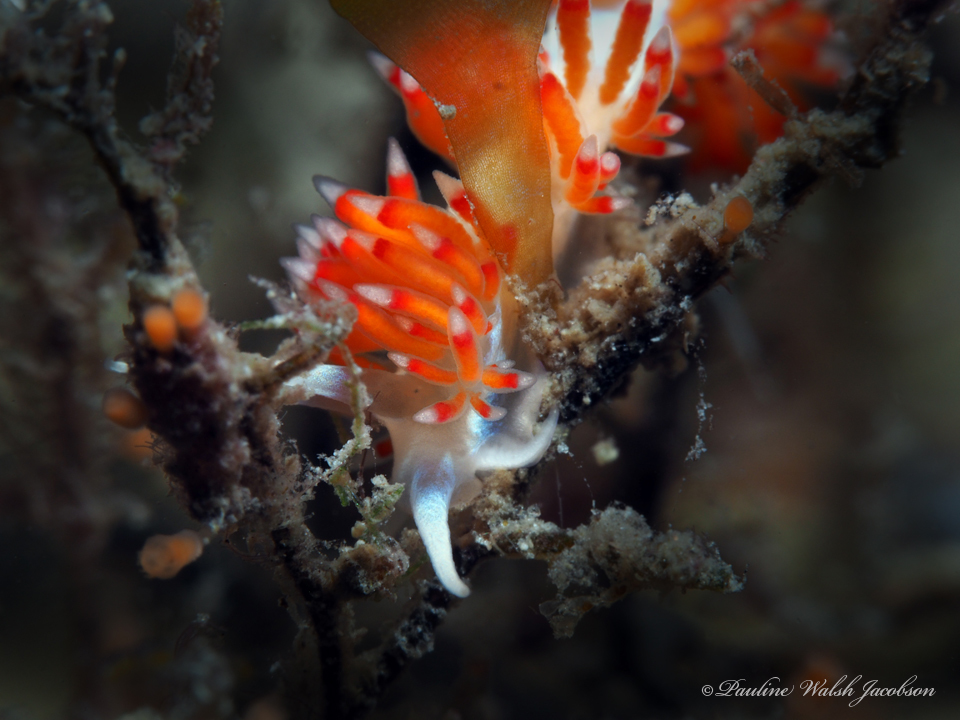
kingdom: Animalia
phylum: Mollusca
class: Gastropoda
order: Nudibranchia
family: Flabellinidae
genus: Flabellina
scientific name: Flabellina dushia
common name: Dushia flabellina
